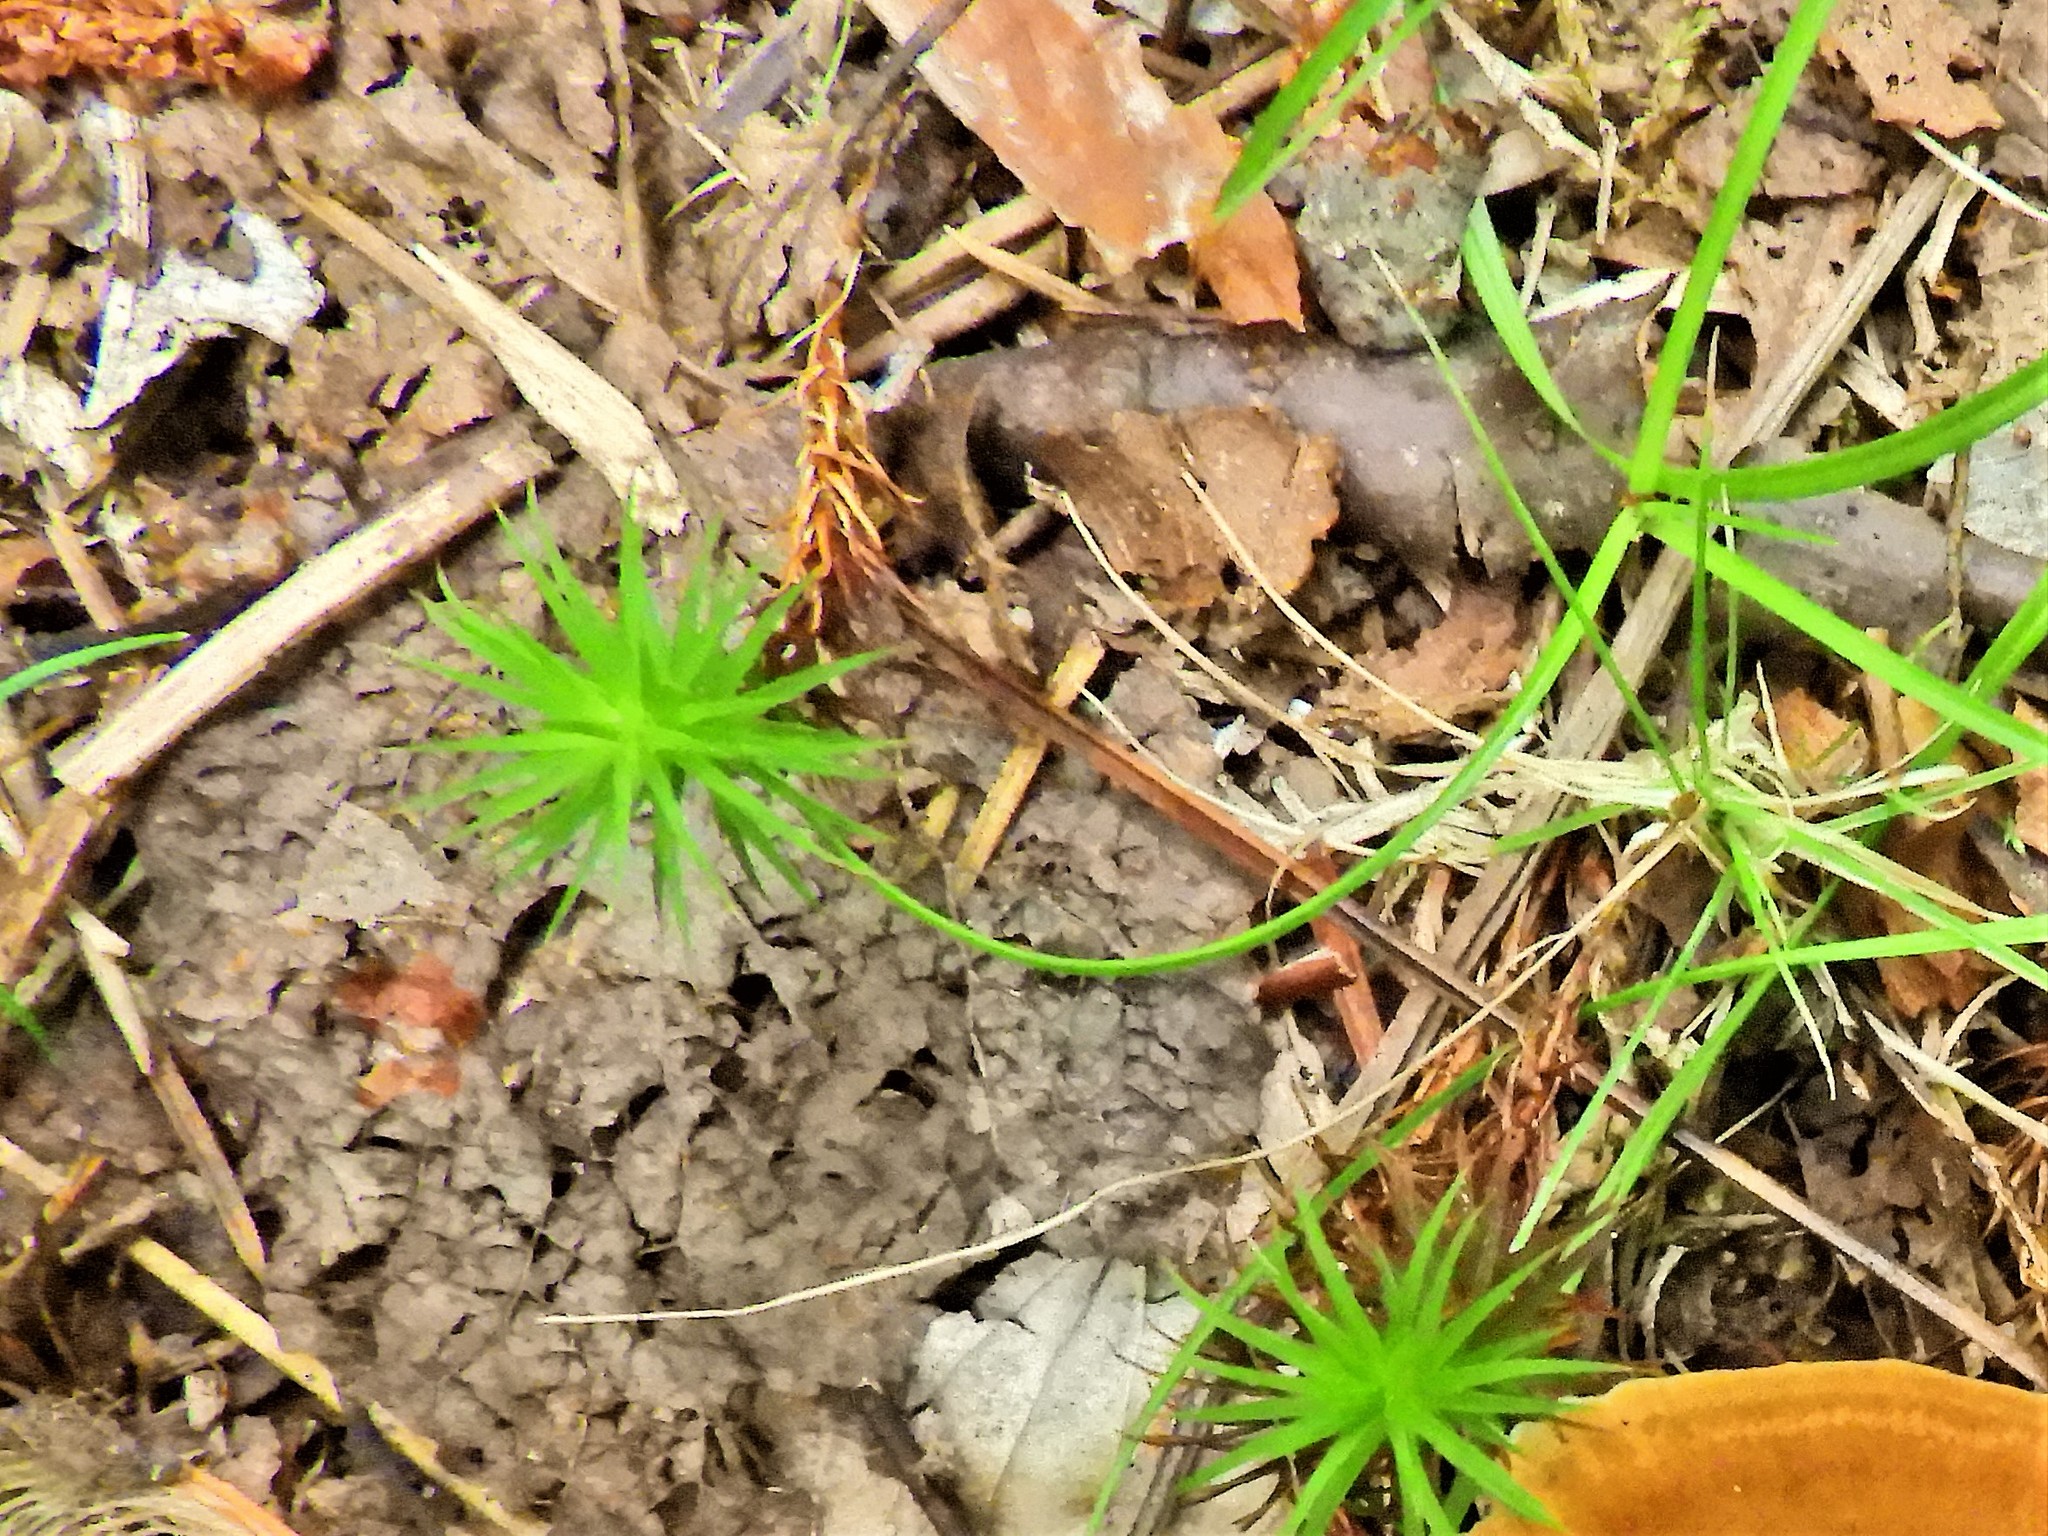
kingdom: Plantae
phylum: Bryophyta
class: Polytrichopsida
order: Polytrichales
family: Polytrichaceae
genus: Polytrichum
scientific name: Polytrichum juniperinum
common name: Juniper haircap moss
